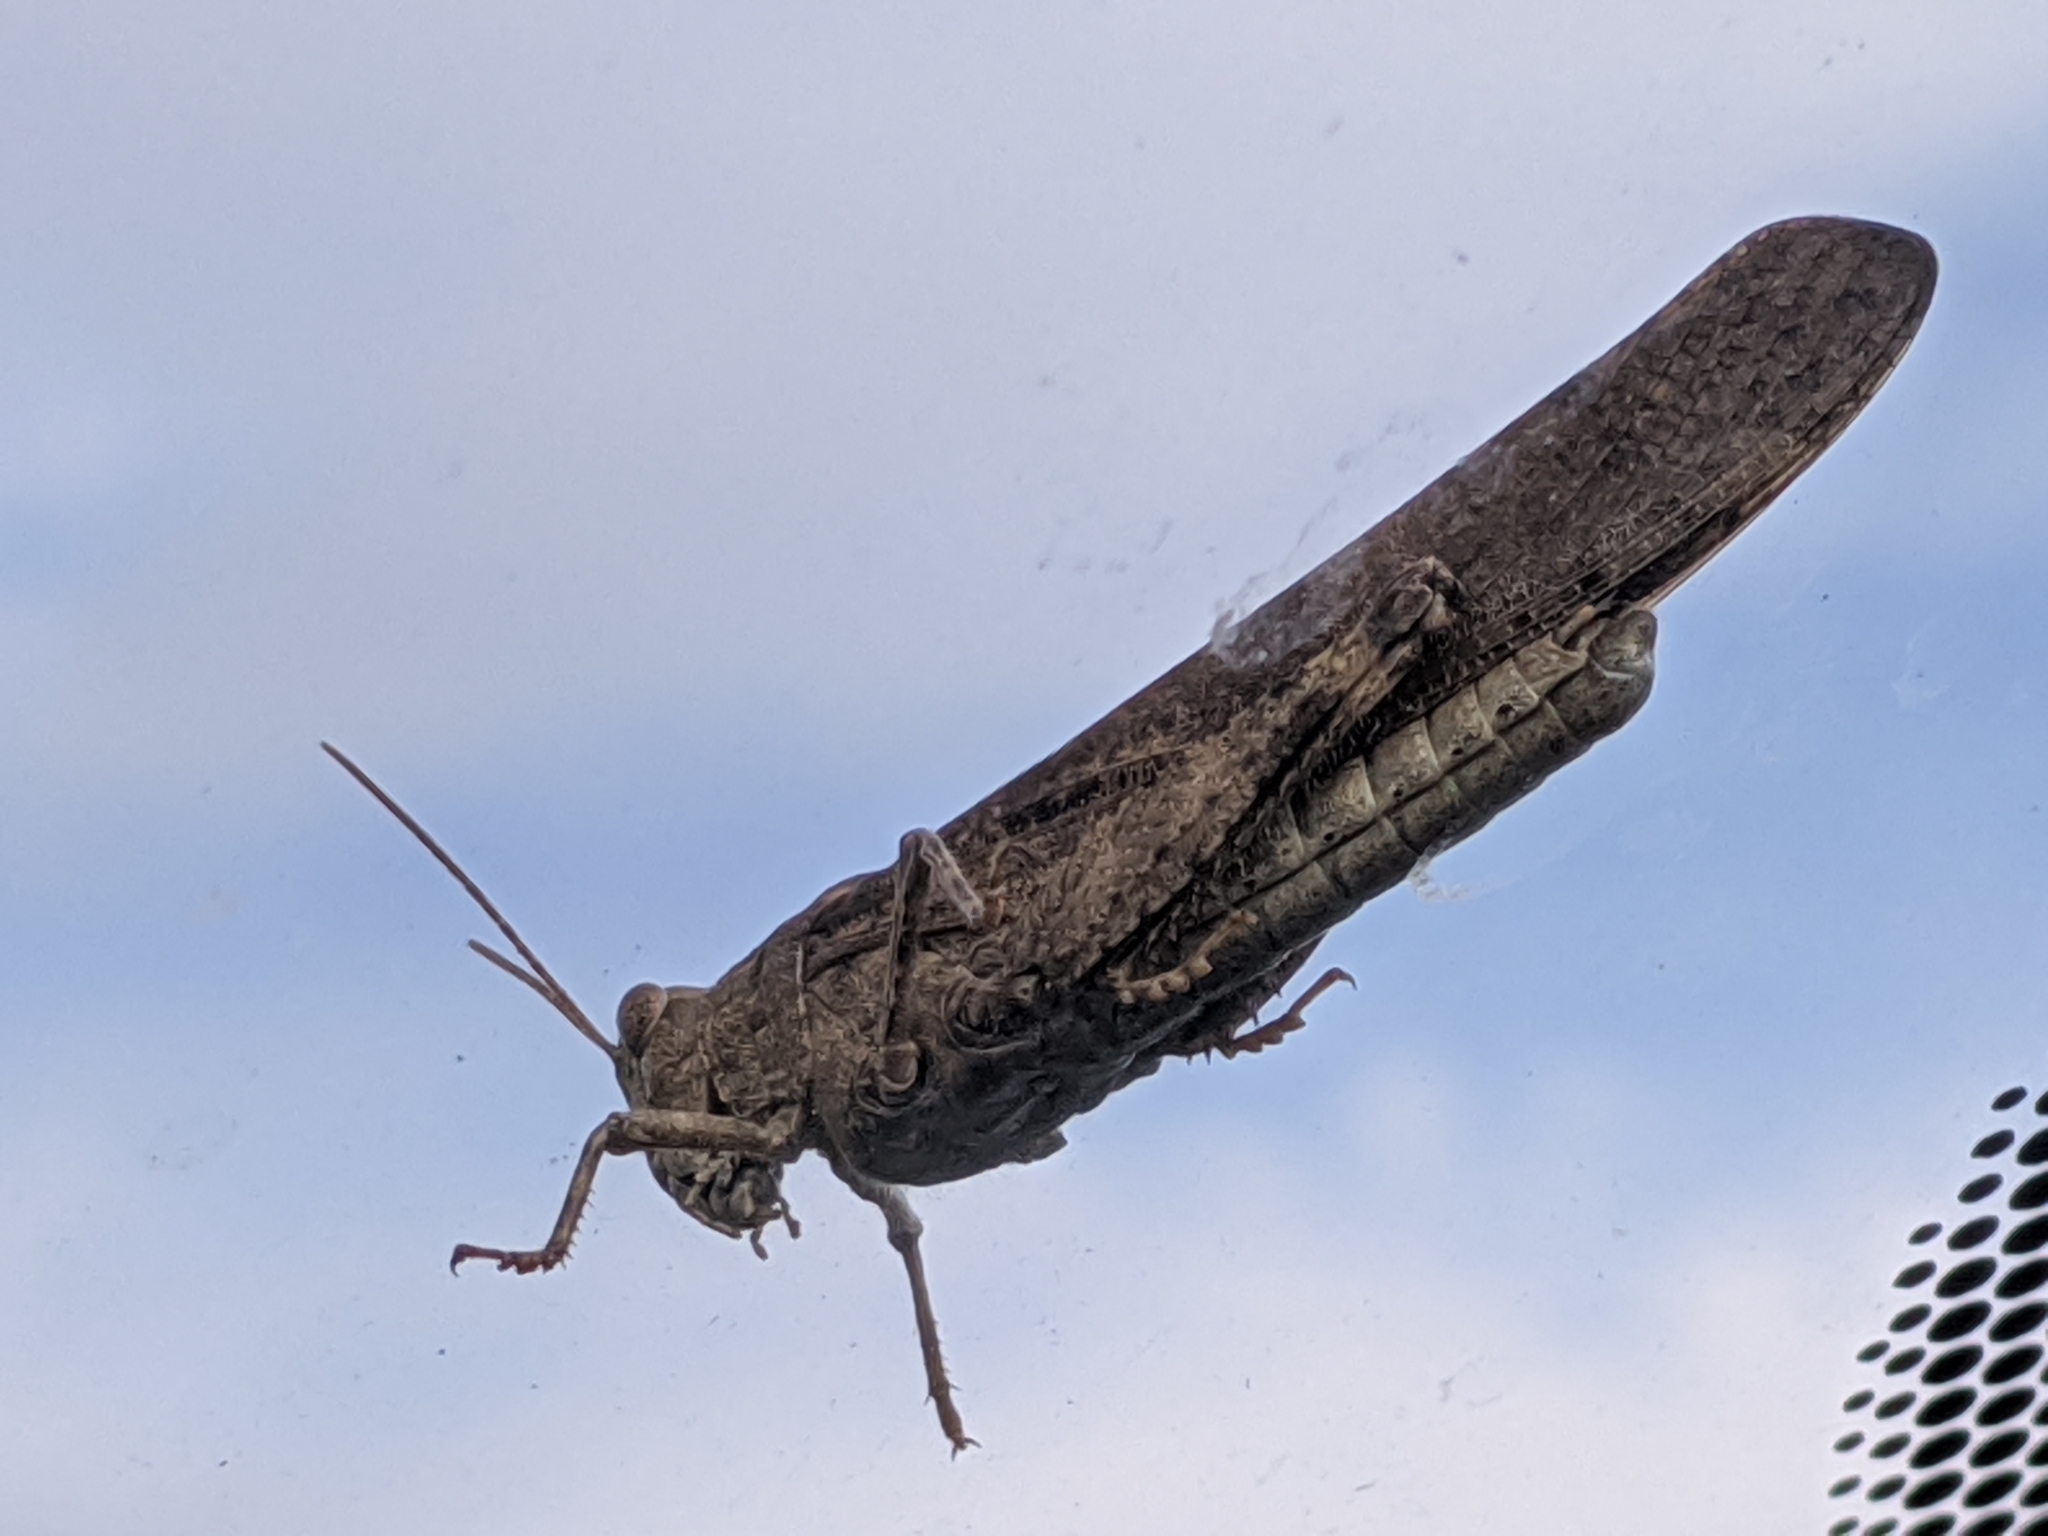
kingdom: Animalia
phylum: Arthropoda
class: Insecta
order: Orthoptera
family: Acrididae
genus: Dissosteira
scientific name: Dissosteira carolina
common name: Carolina grasshopper
